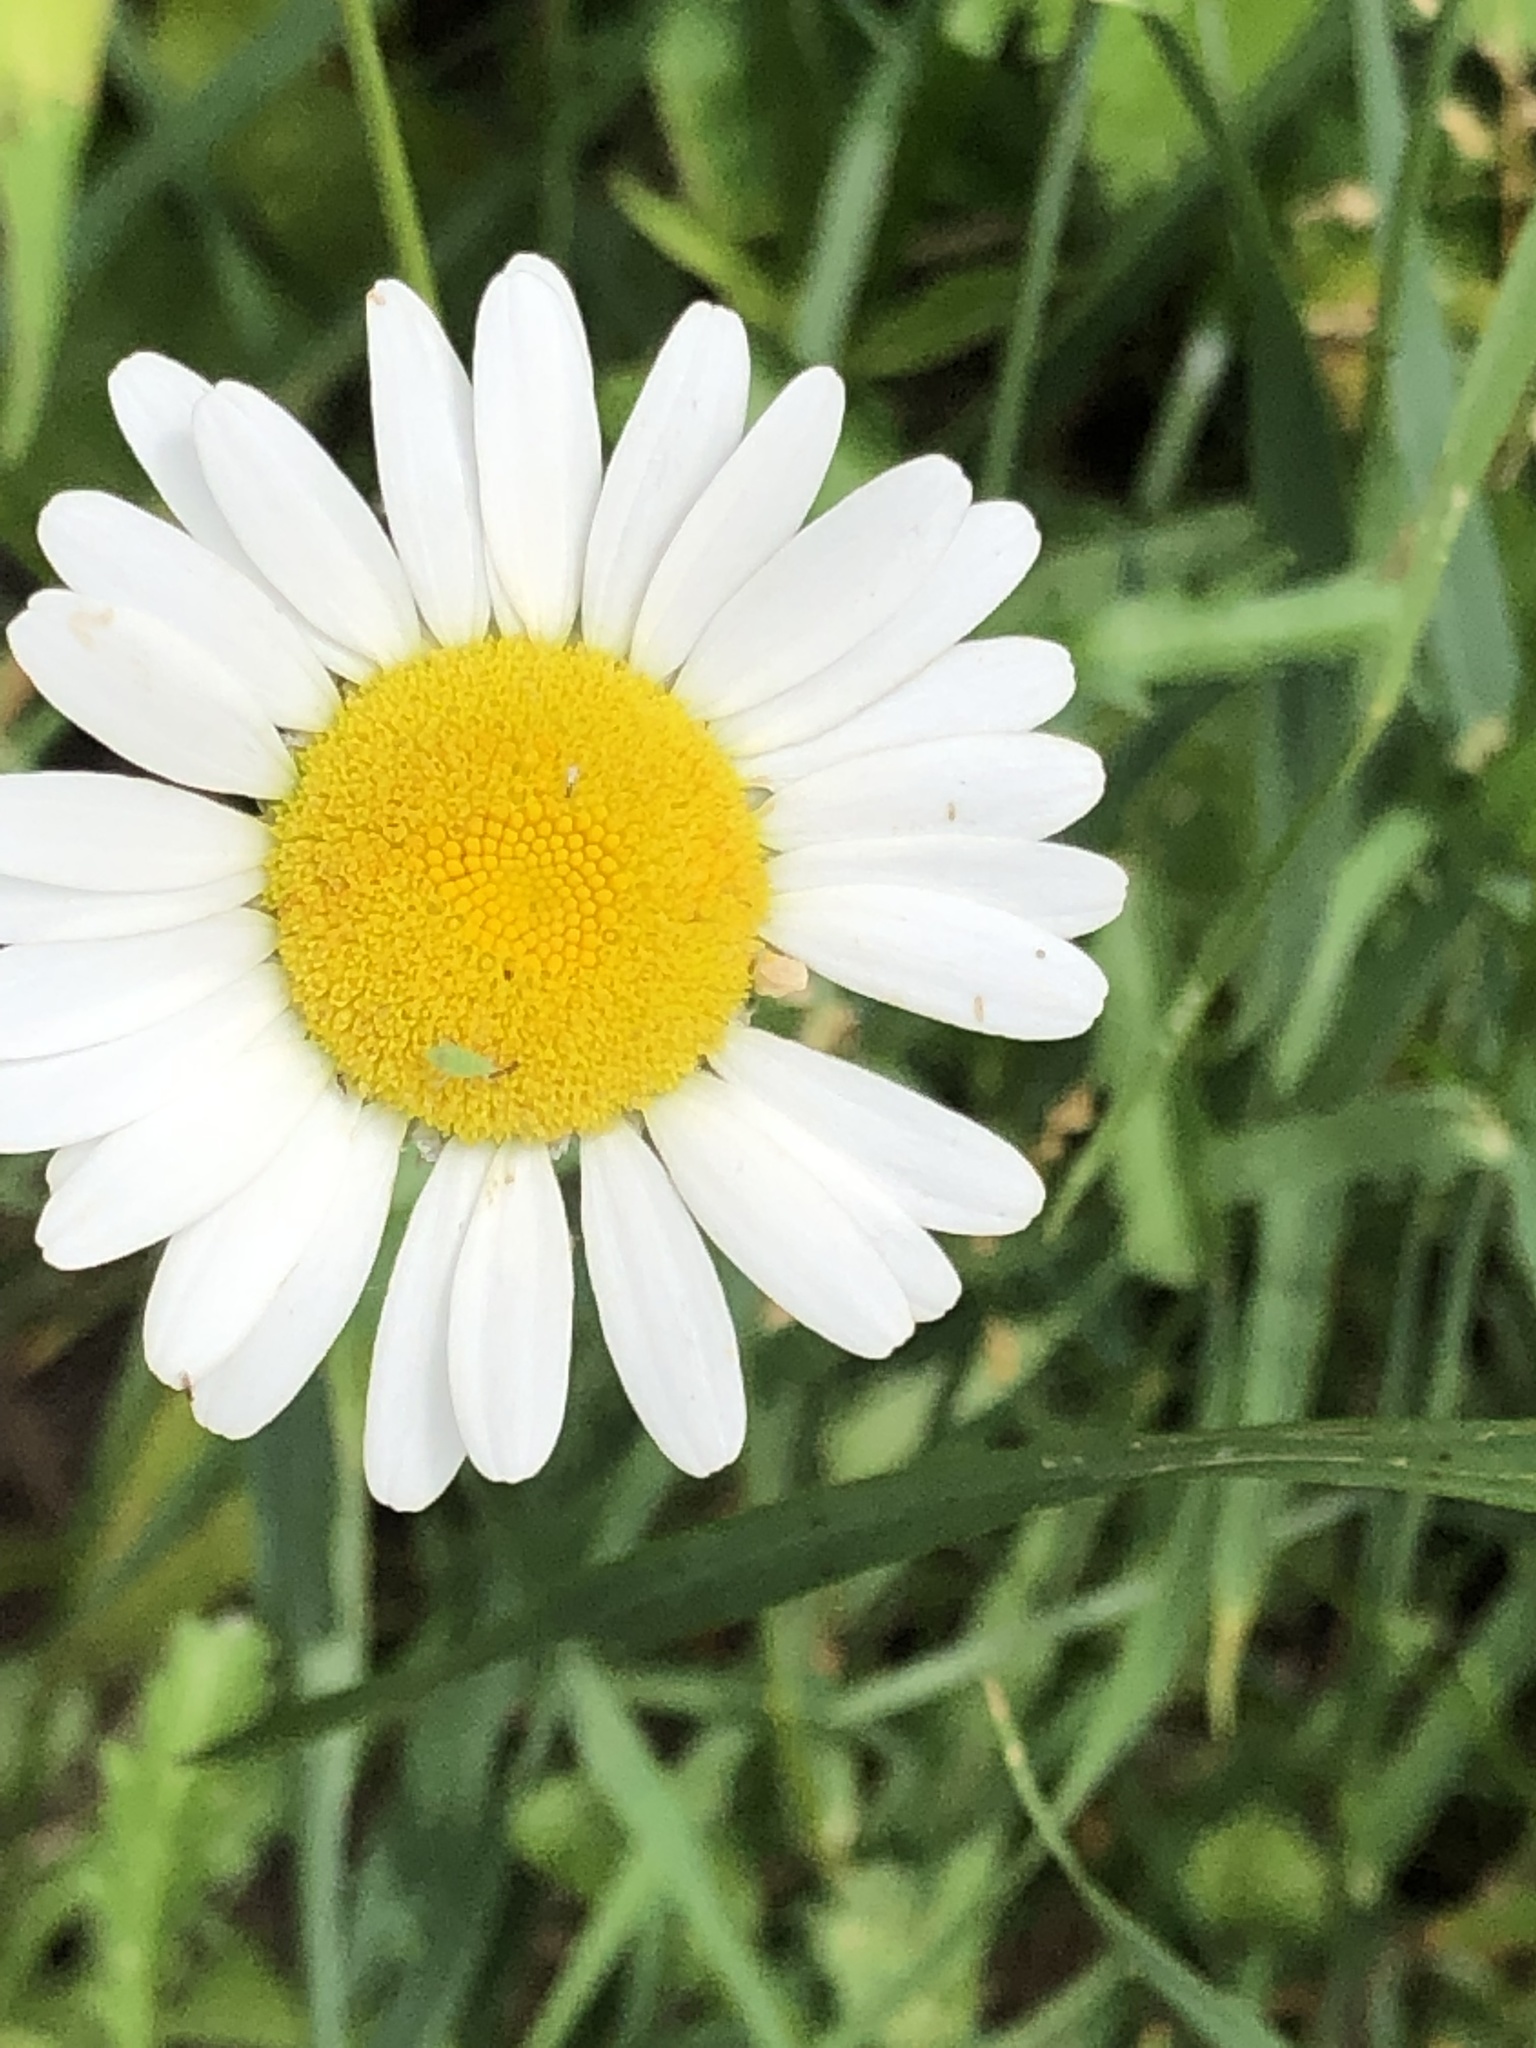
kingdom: Plantae
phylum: Tracheophyta
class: Magnoliopsida
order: Asterales
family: Asteraceae
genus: Leucanthemum
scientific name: Leucanthemum vulgare
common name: Oxeye daisy
